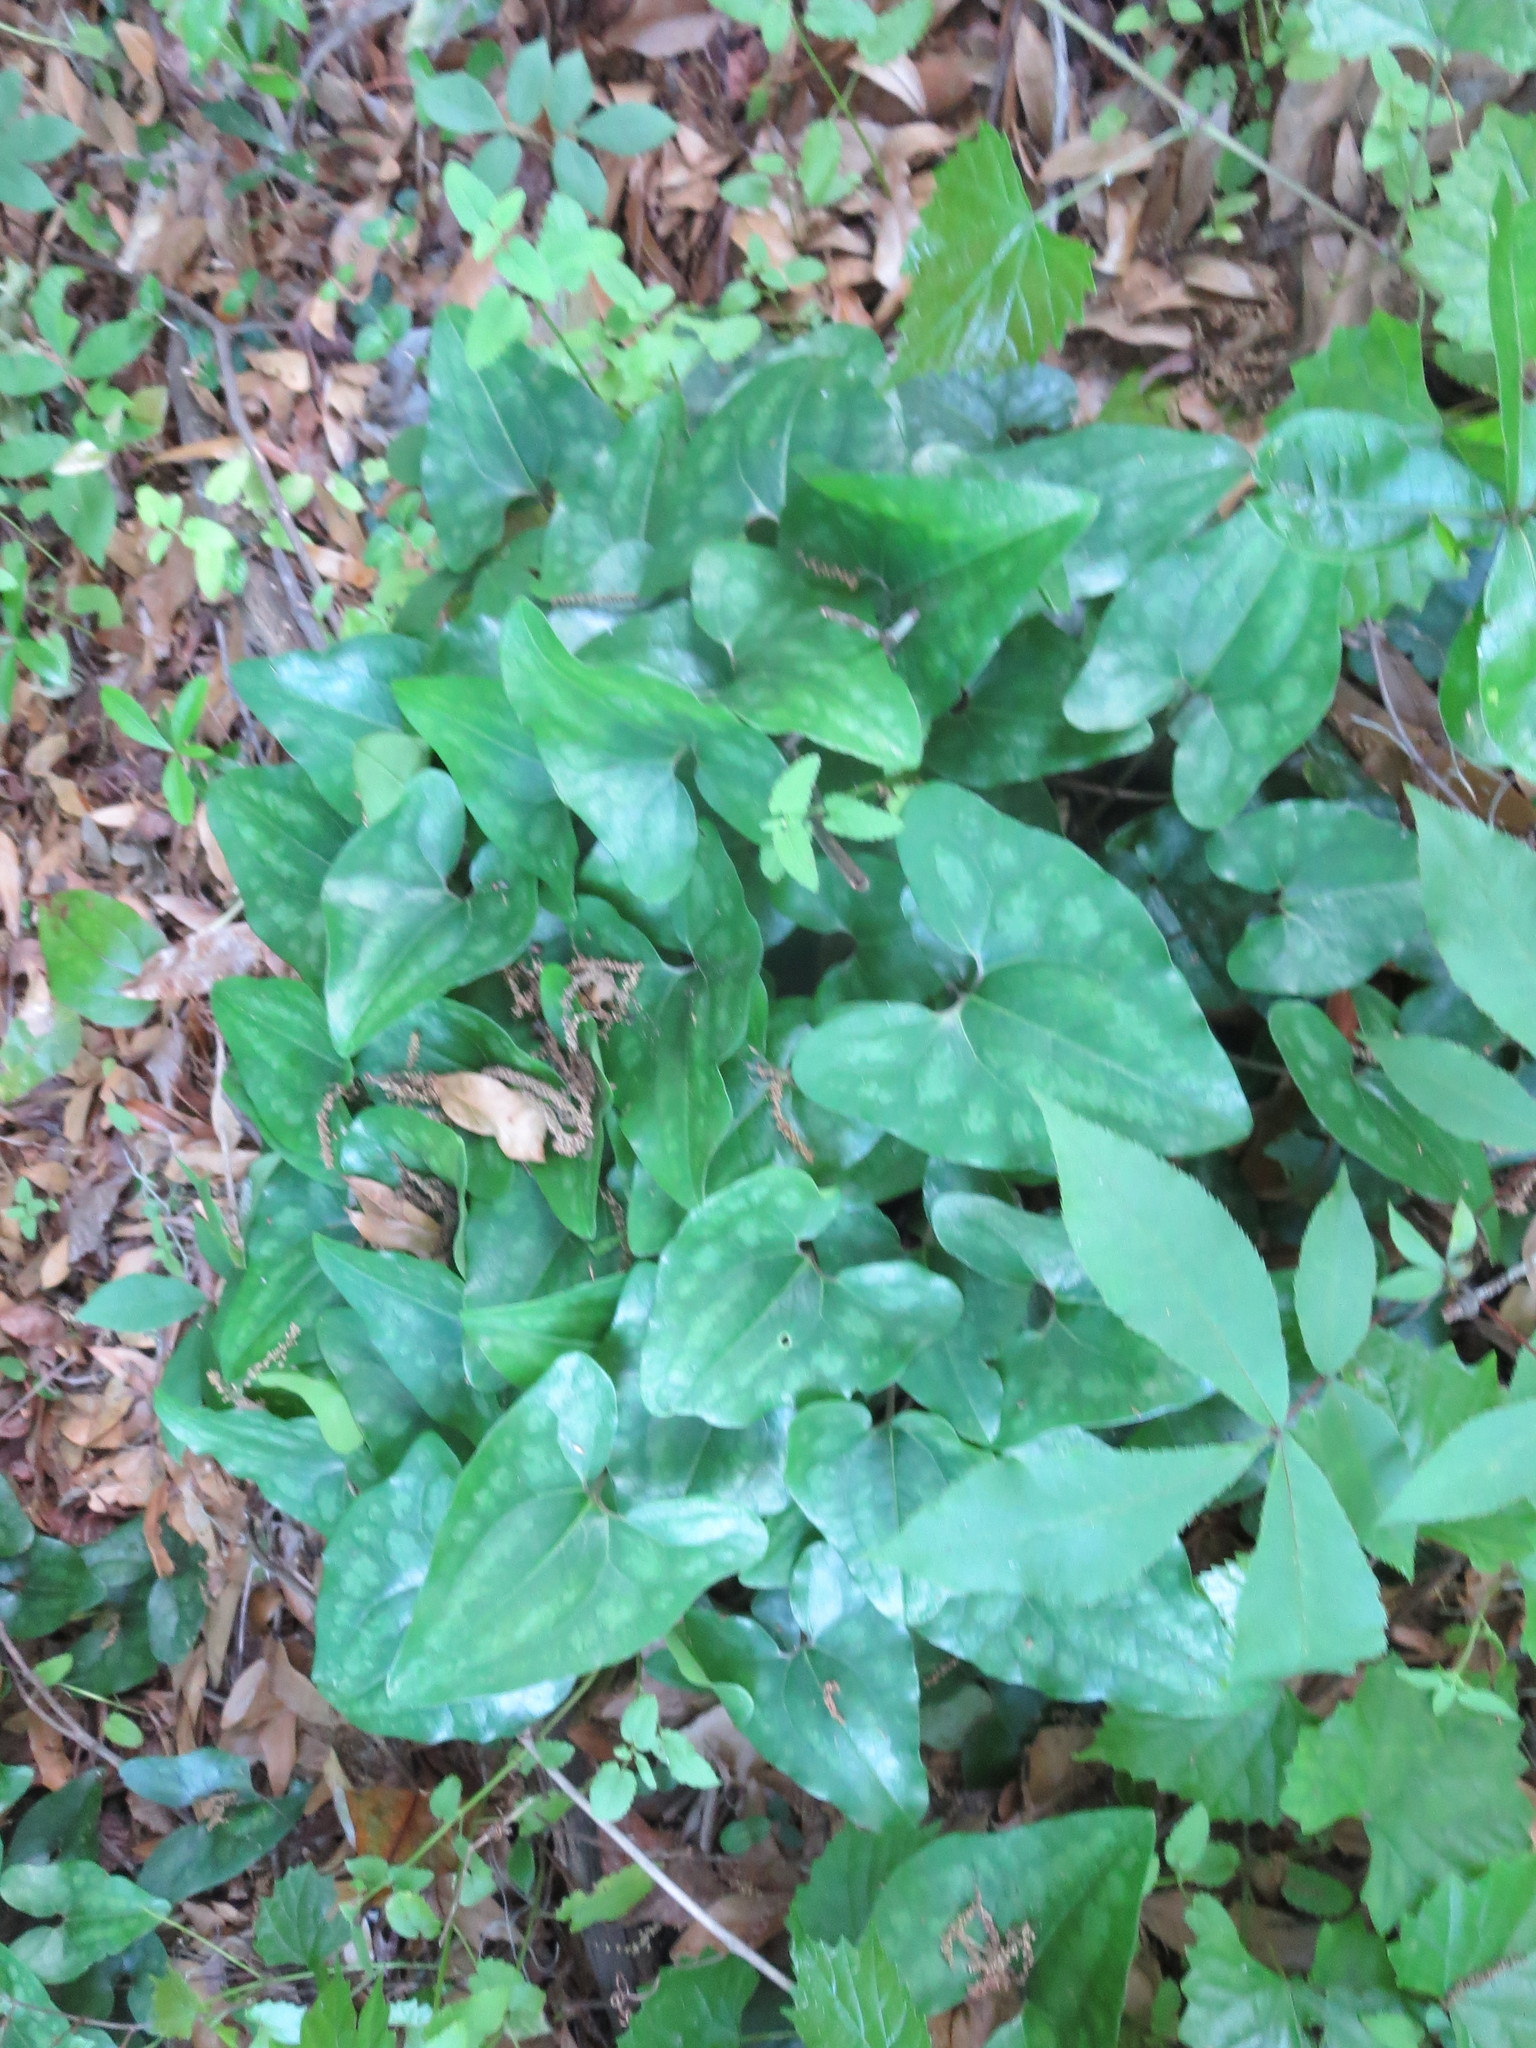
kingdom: Plantae
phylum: Tracheophyta
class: Magnoliopsida
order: Piperales
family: Aristolochiaceae
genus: Hexastylis
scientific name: Hexastylis arifolia
